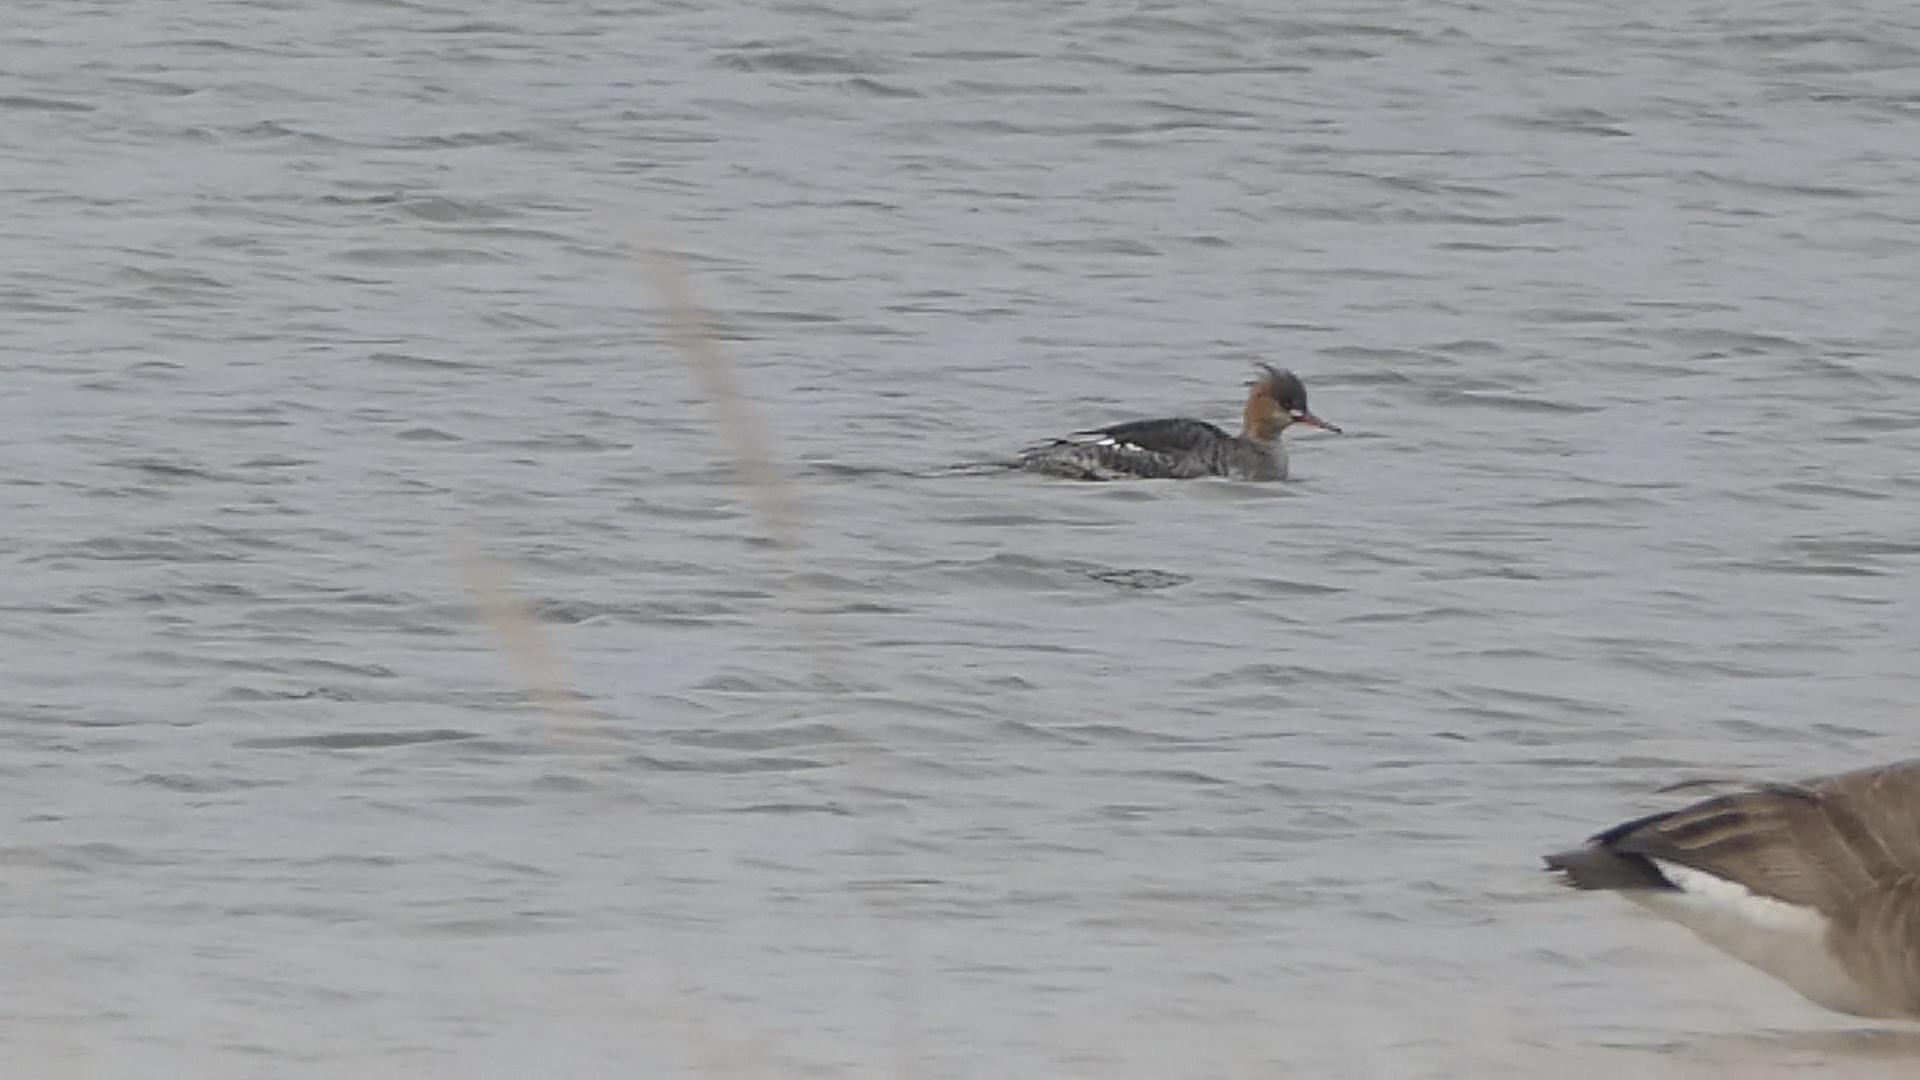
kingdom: Animalia
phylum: Chordata
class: Aves
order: Anseriformes
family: Anatidae
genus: Mergus
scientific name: Mergus serrator
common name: Red-breasted merganser
